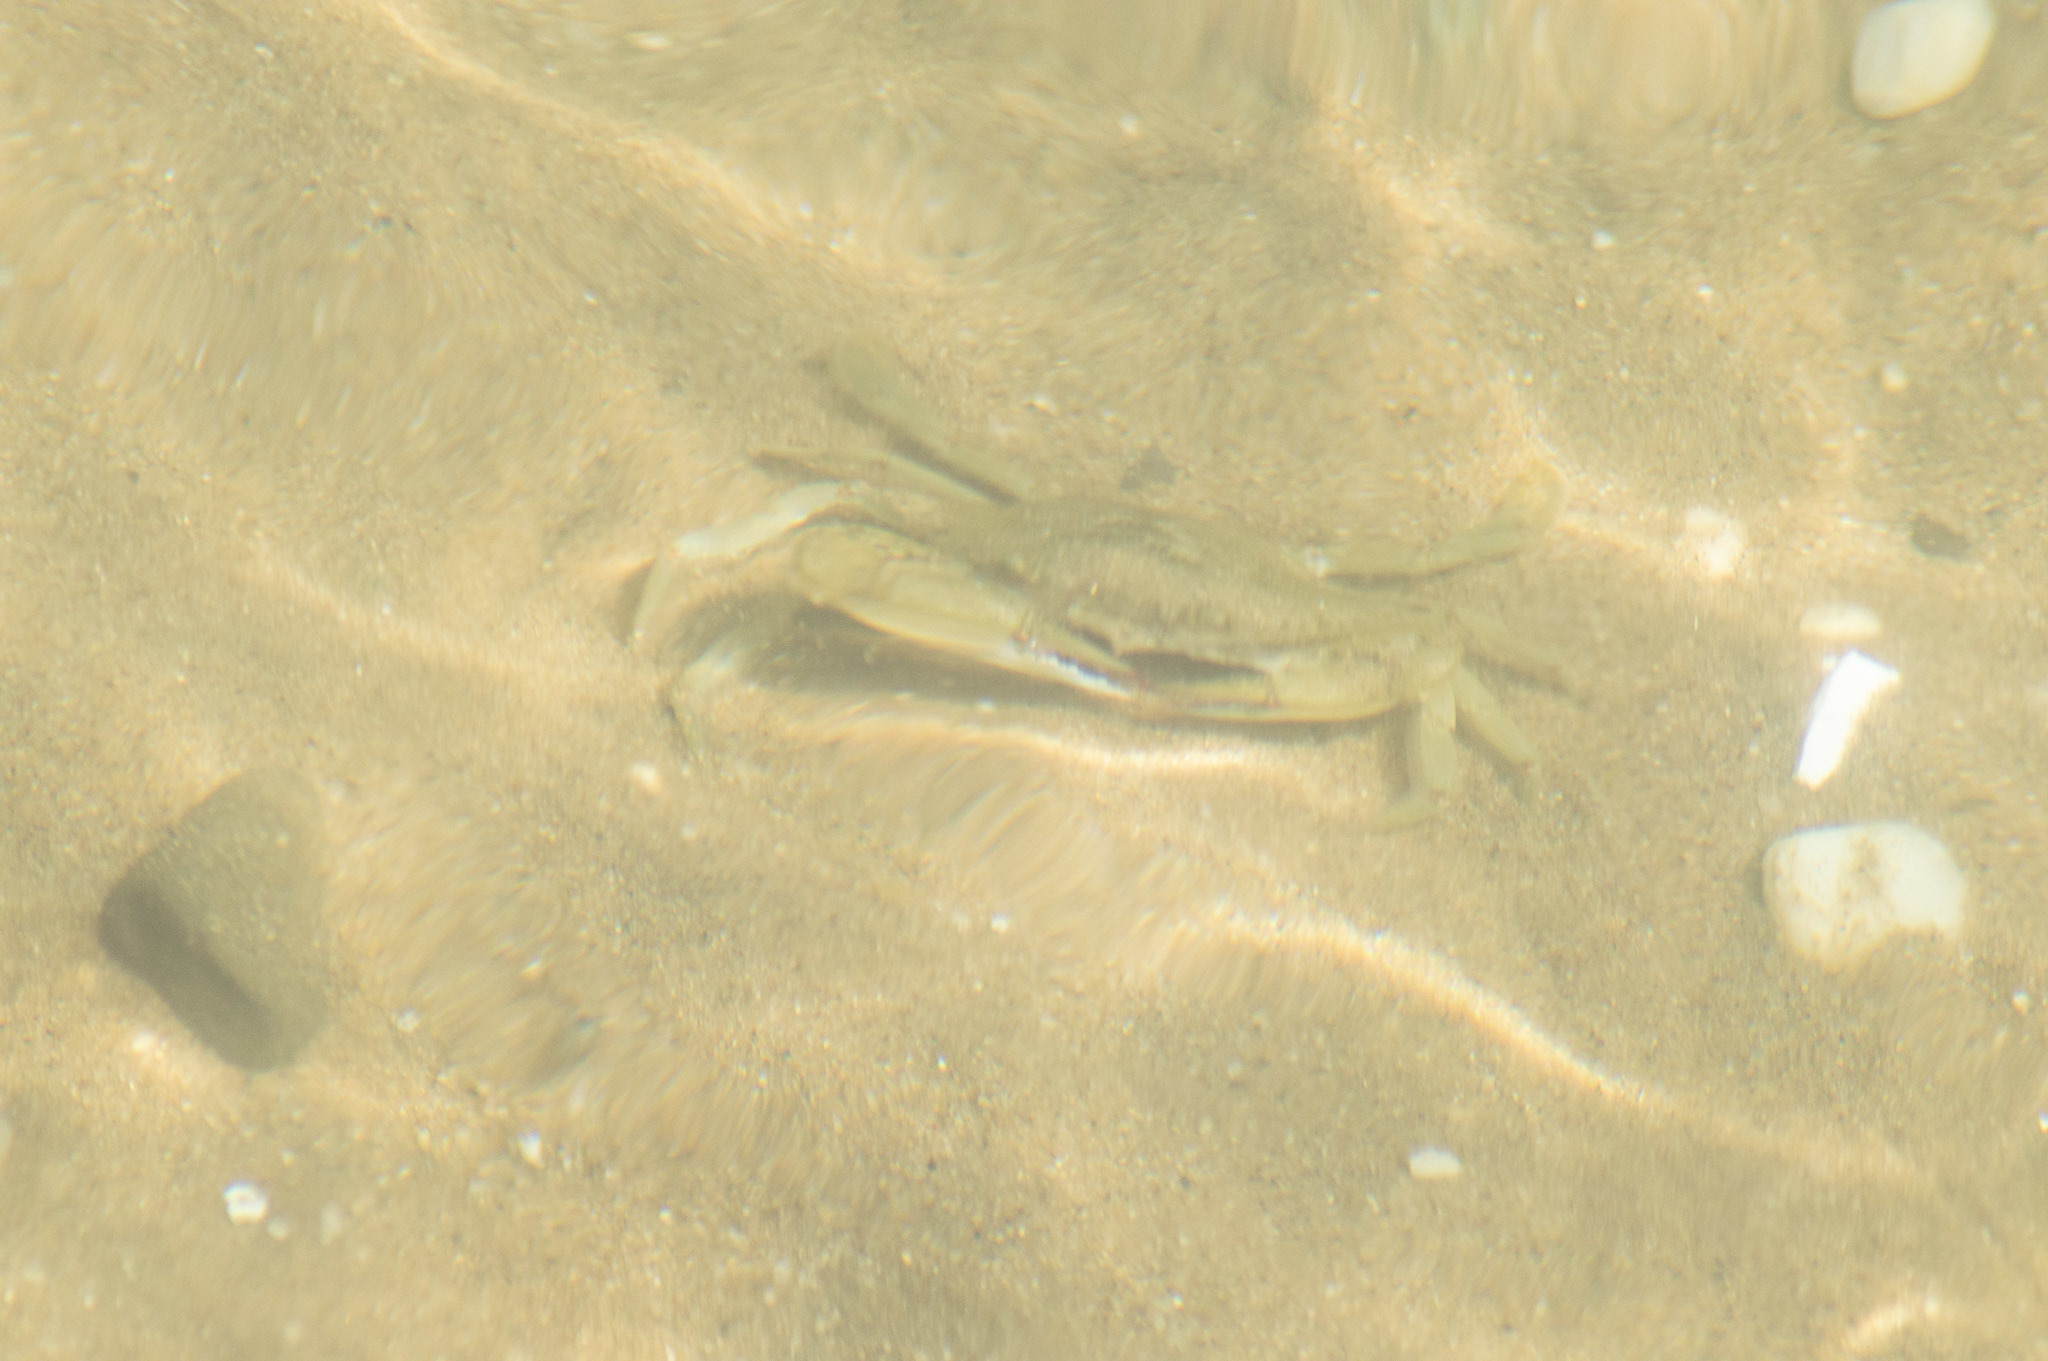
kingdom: Animalia
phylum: Arthropoda
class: Malacostraca
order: Decapoda
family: Portunidae
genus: Callinectes
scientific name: Callinectes sapidus
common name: Blue crab
